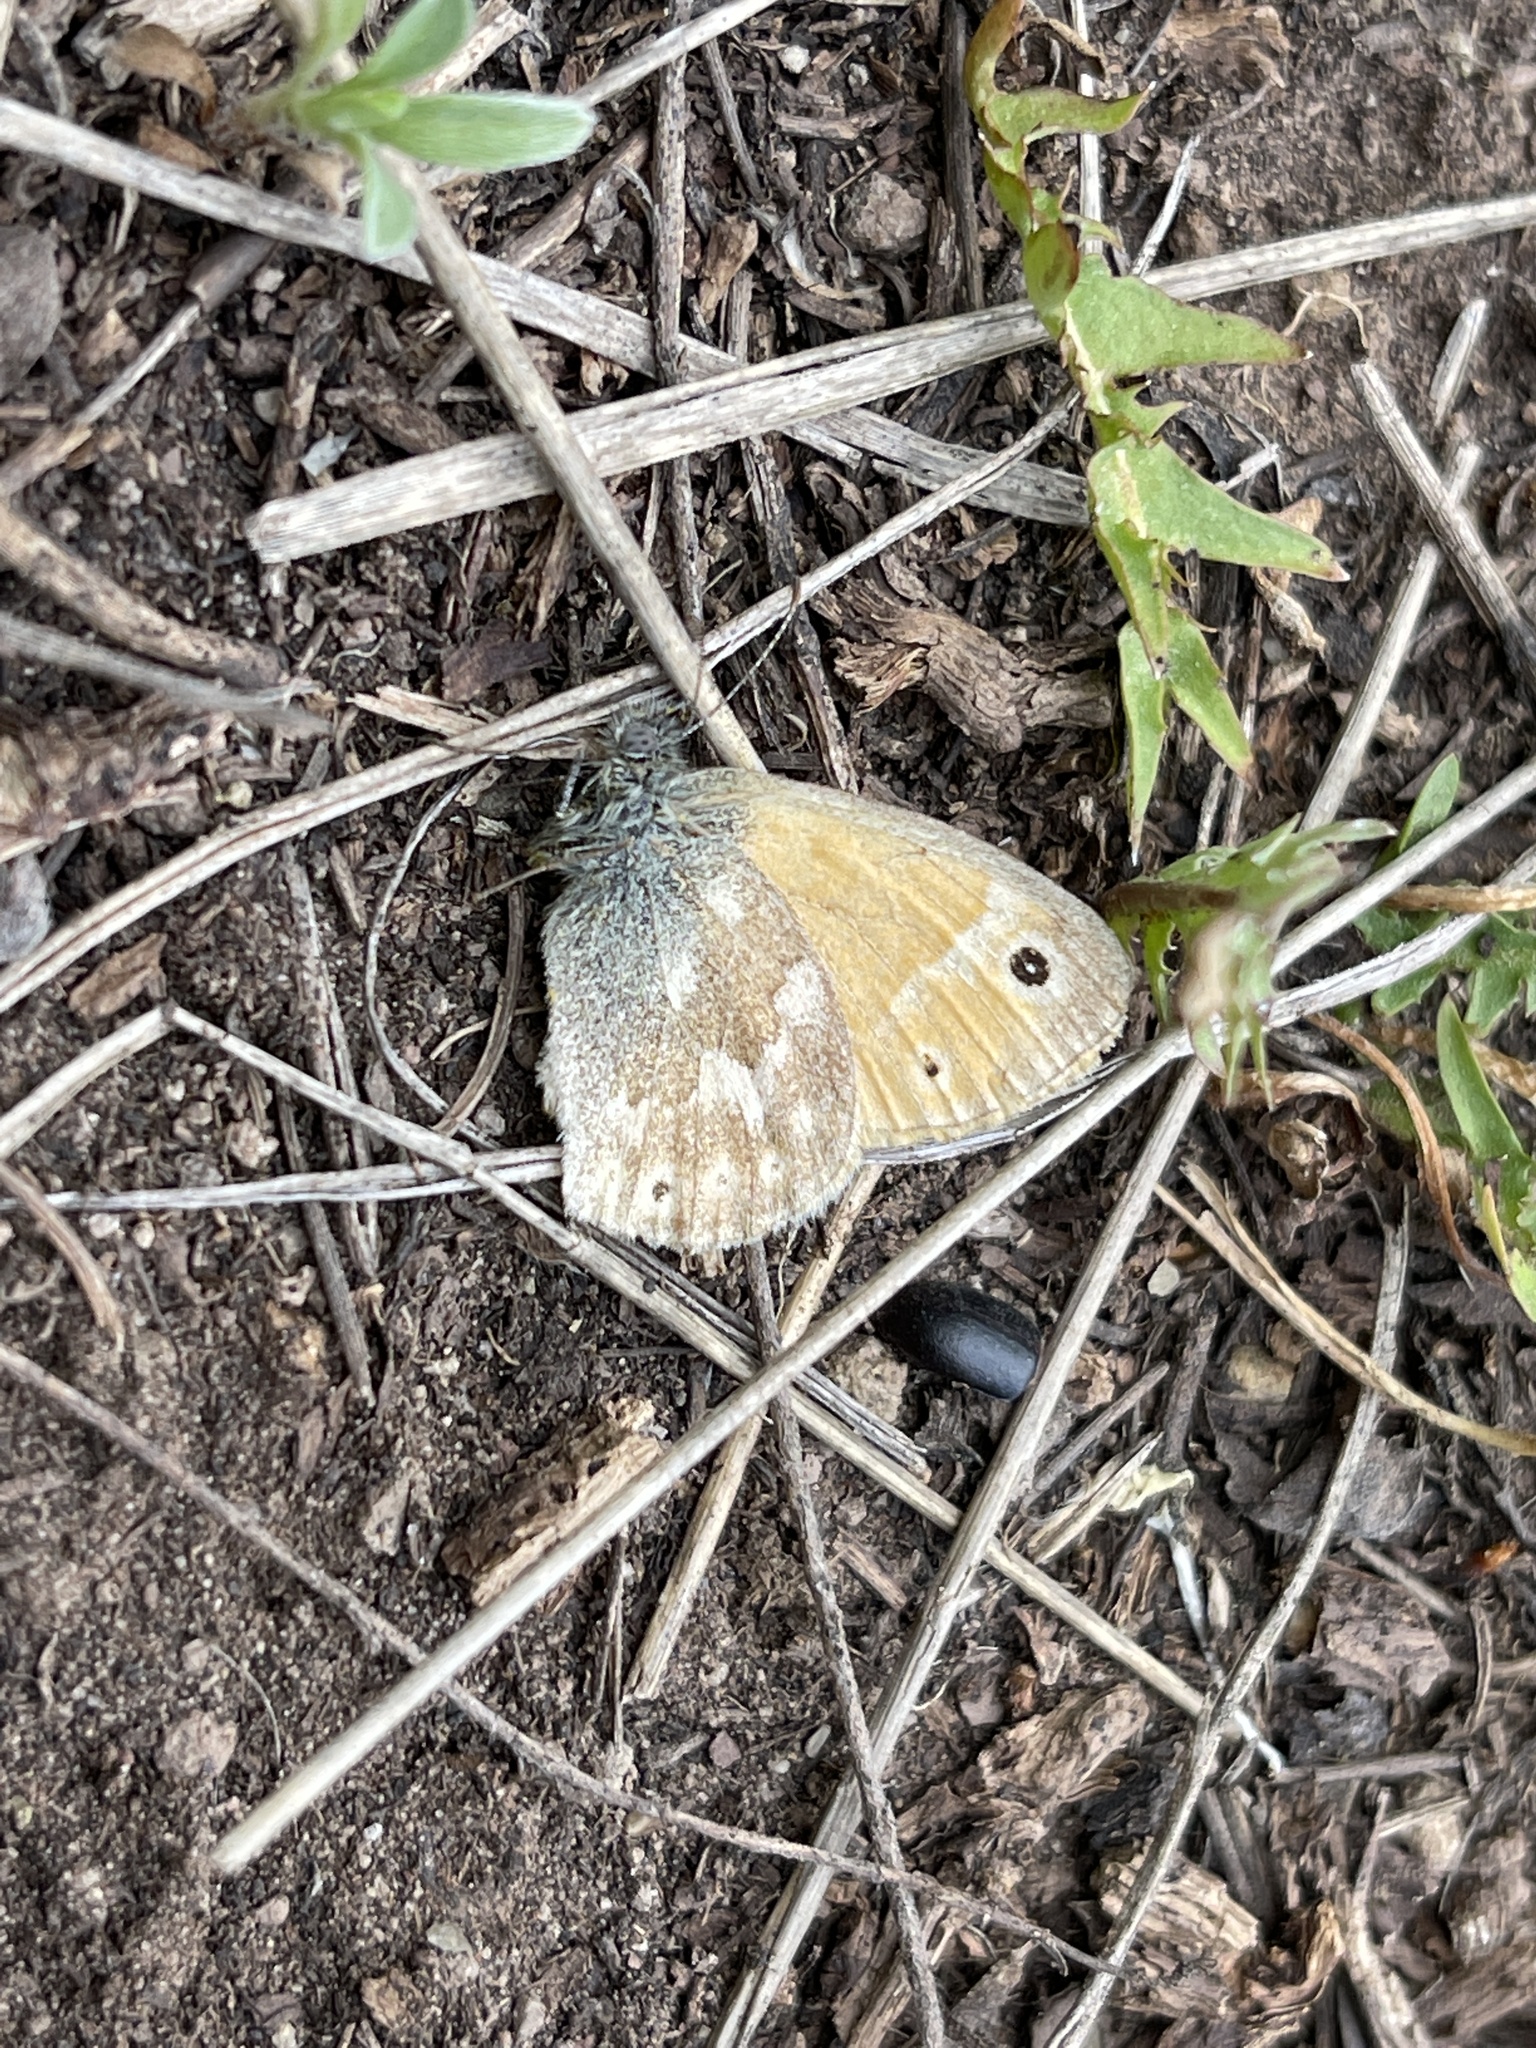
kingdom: Animalia
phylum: Arthropoda
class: Insecta
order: Lepidoptera
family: Nymphalidae
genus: Coenonympha
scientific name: Coenonympha california
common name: Common ringlet
